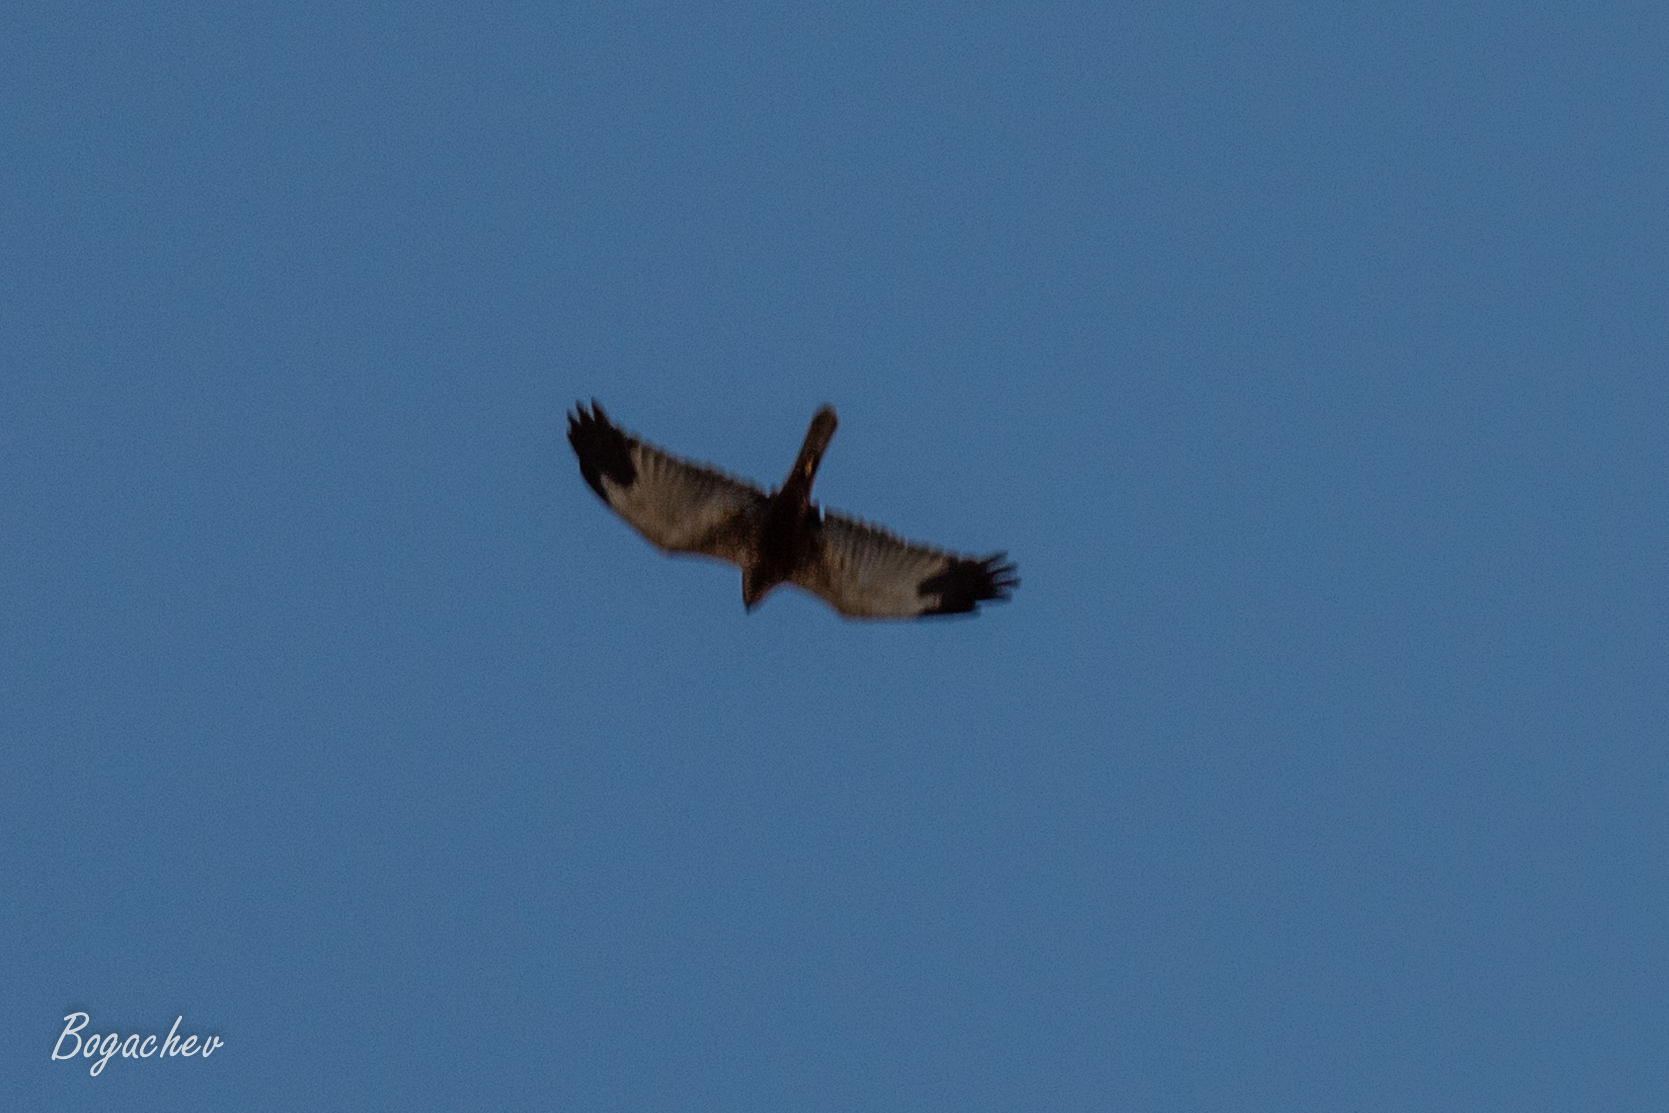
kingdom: Animalia
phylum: Chordata
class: Aves
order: Accipitriformes
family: Accipitridae
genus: Circus
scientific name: Circus aeruginosus
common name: Western marsh harrier
